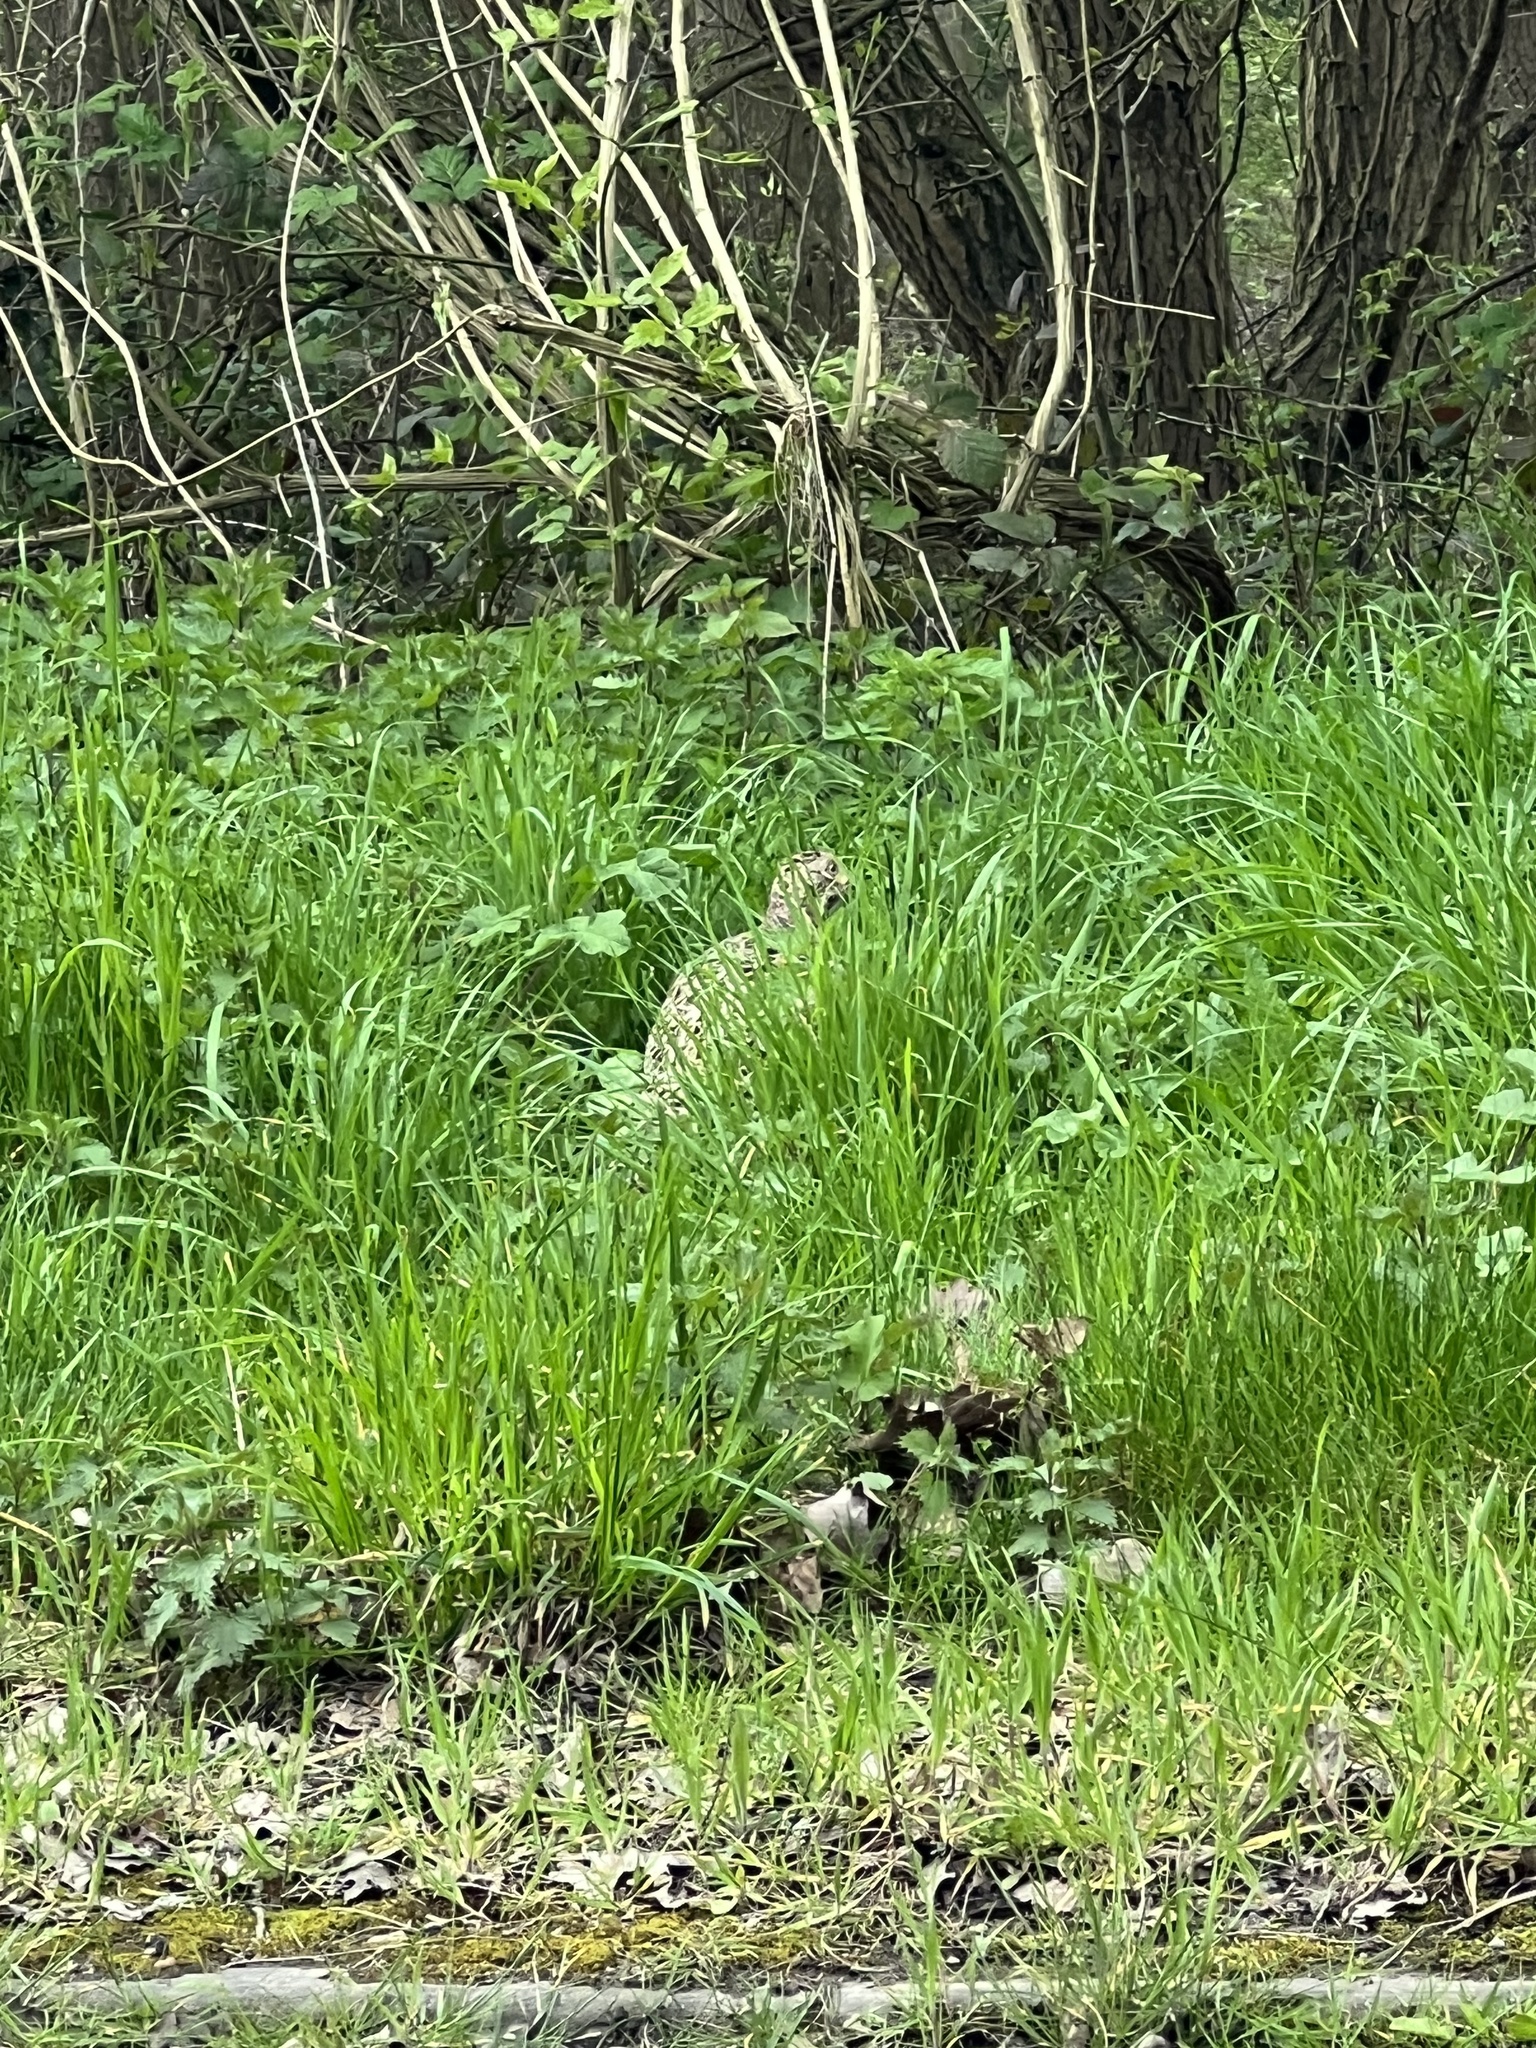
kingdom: Animalia
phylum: Chordata
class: Aves
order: Galliformes
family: Phasianidae
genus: Phasianus
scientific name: Phasianus colchicus
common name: Common pheasant
